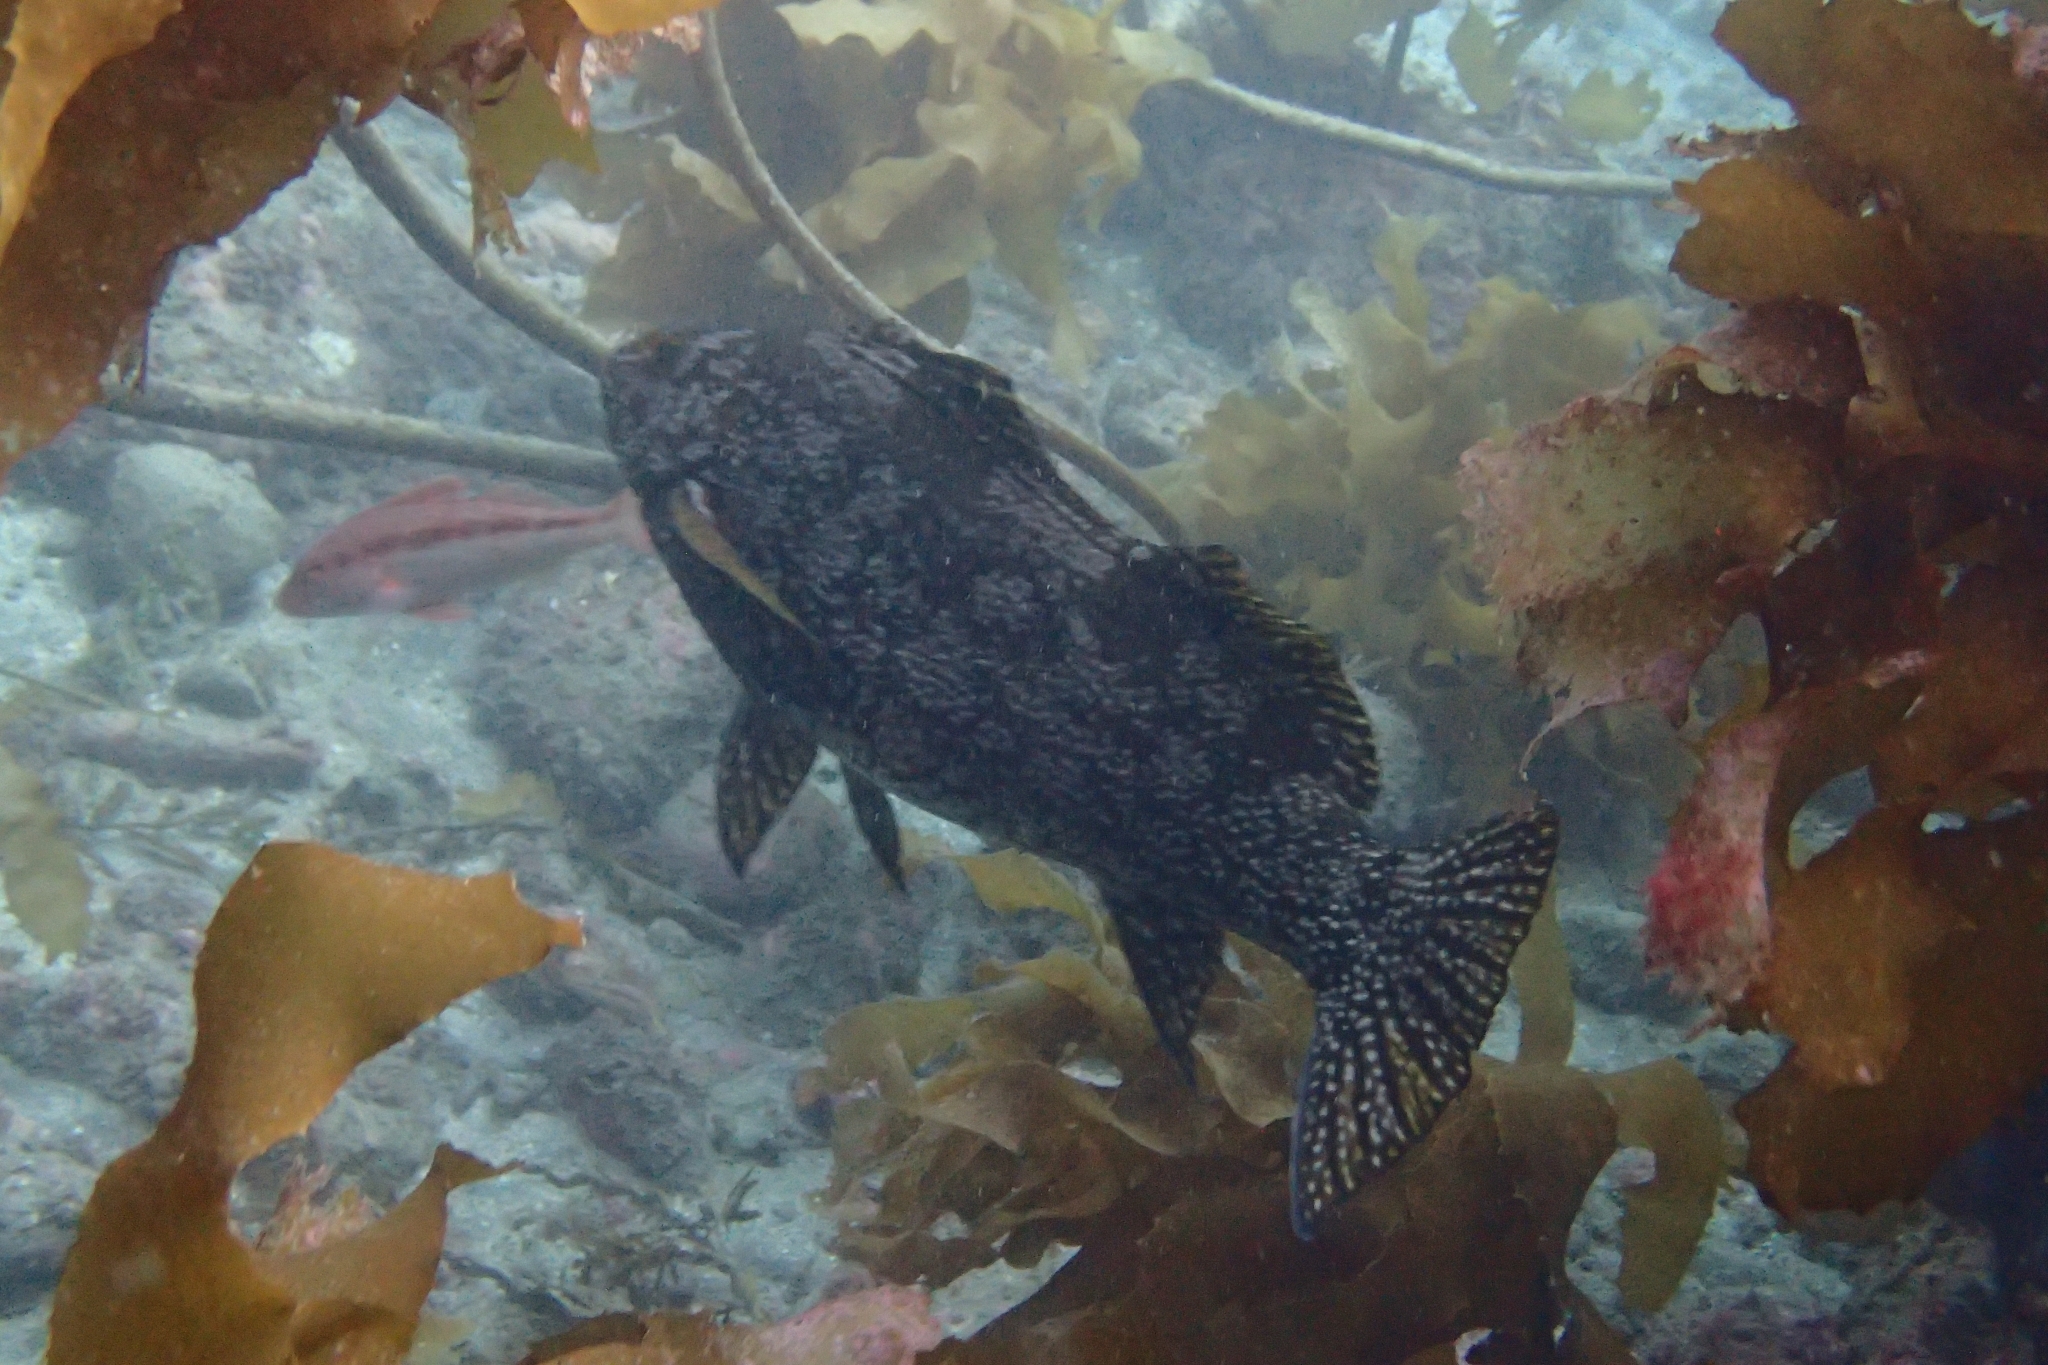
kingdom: Animalia
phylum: Chordata
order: Perciformes
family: Aplodactylidae
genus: Aplodactylus
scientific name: Aplodactylus arctidens
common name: Marblefish
